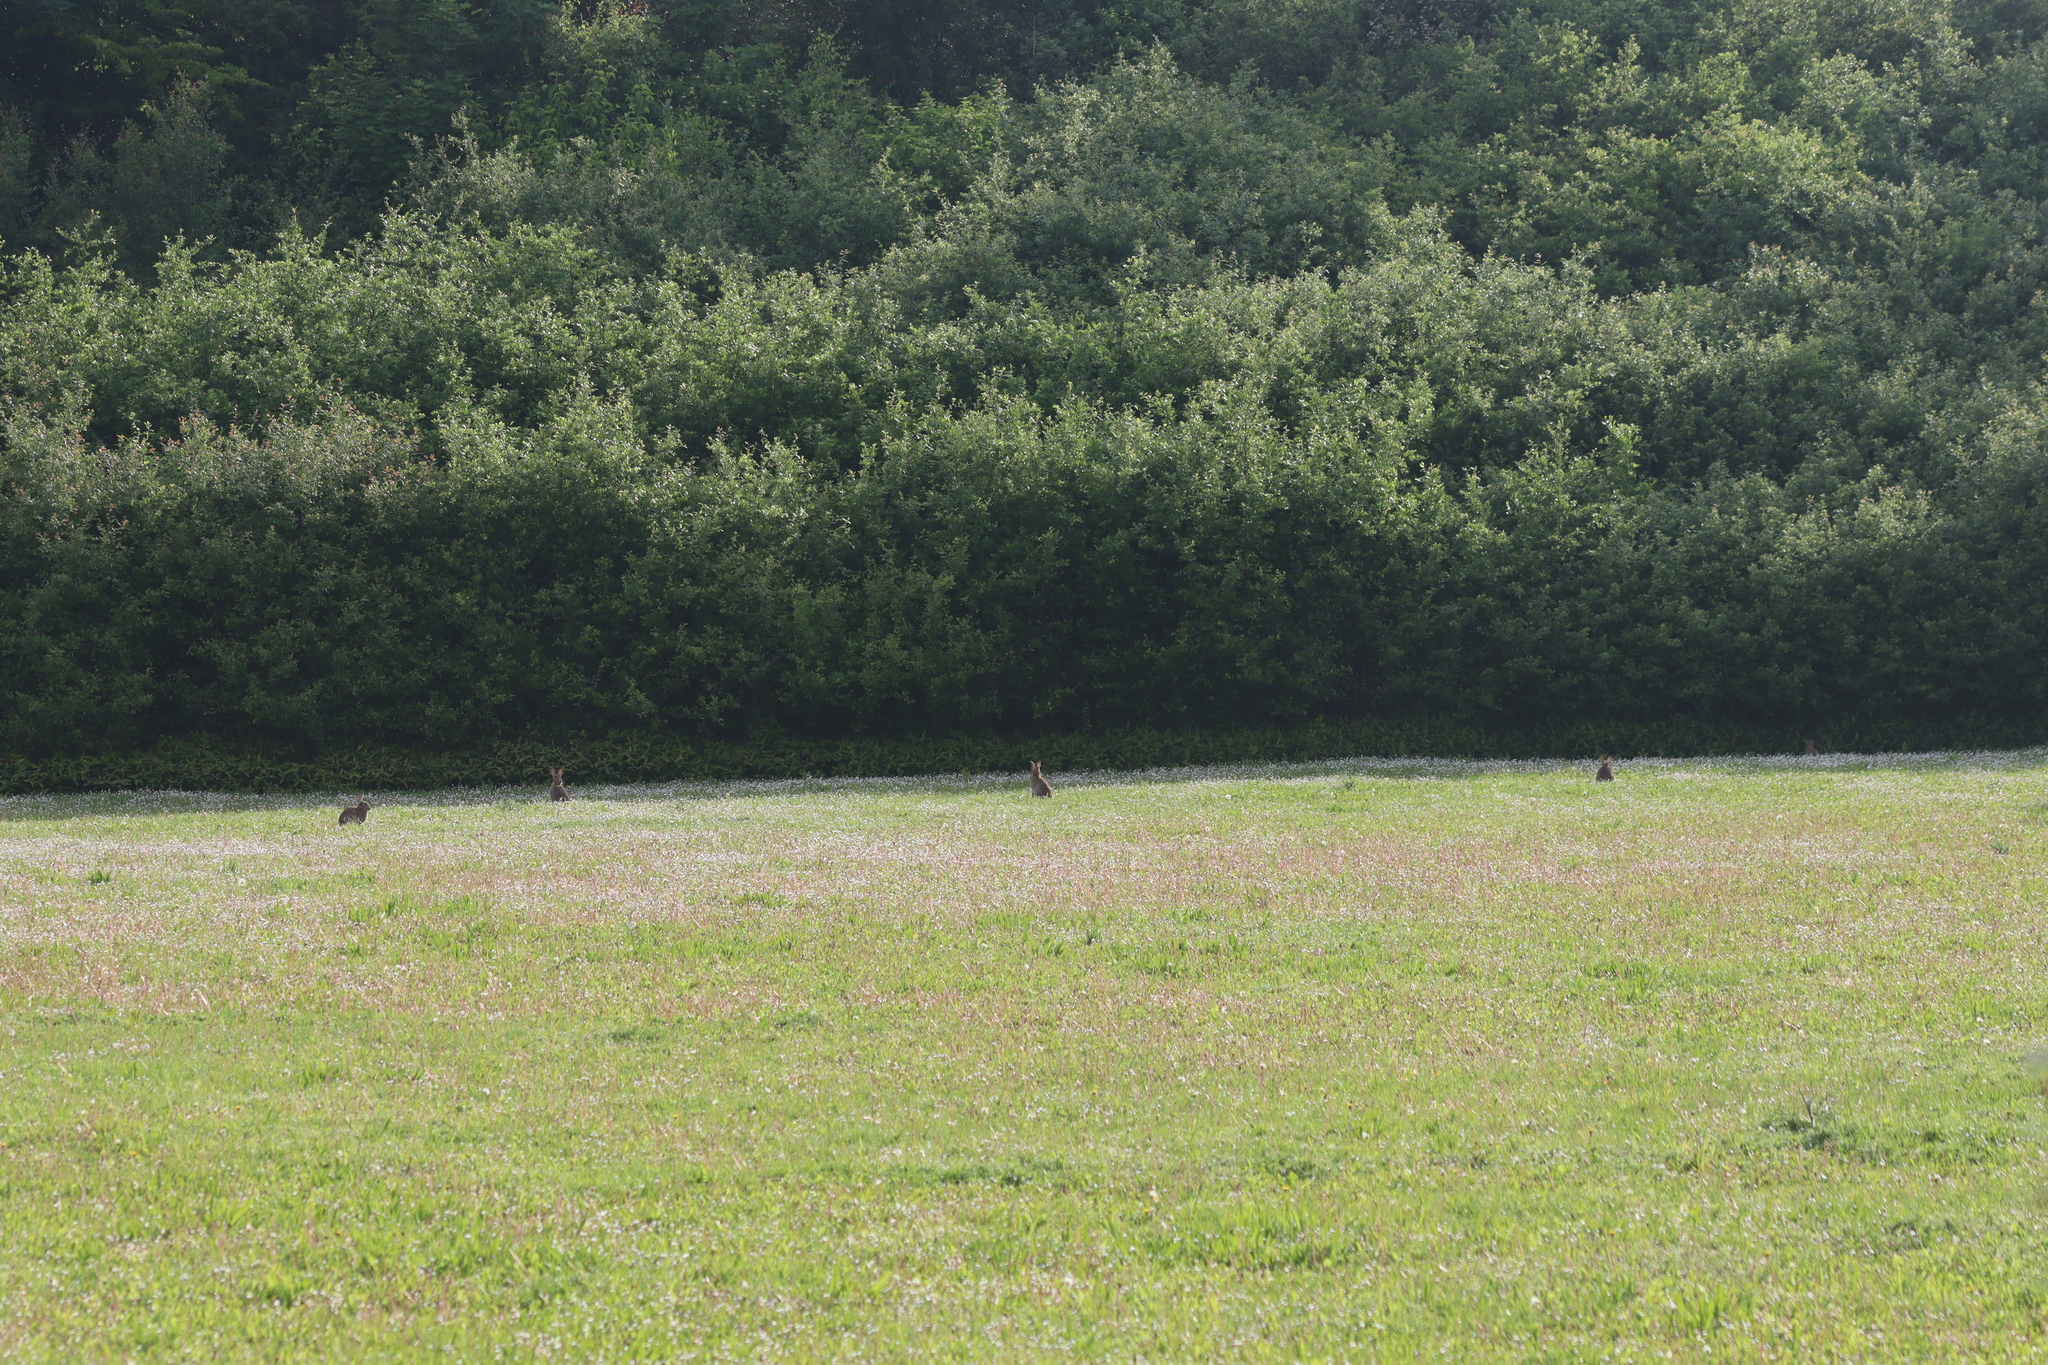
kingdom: Animalia
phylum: Chordata
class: Mammalia
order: Lagomorpha
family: Leporidae
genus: Oryctolagus
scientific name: Oryctolagus cuniculus
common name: European rabbit
